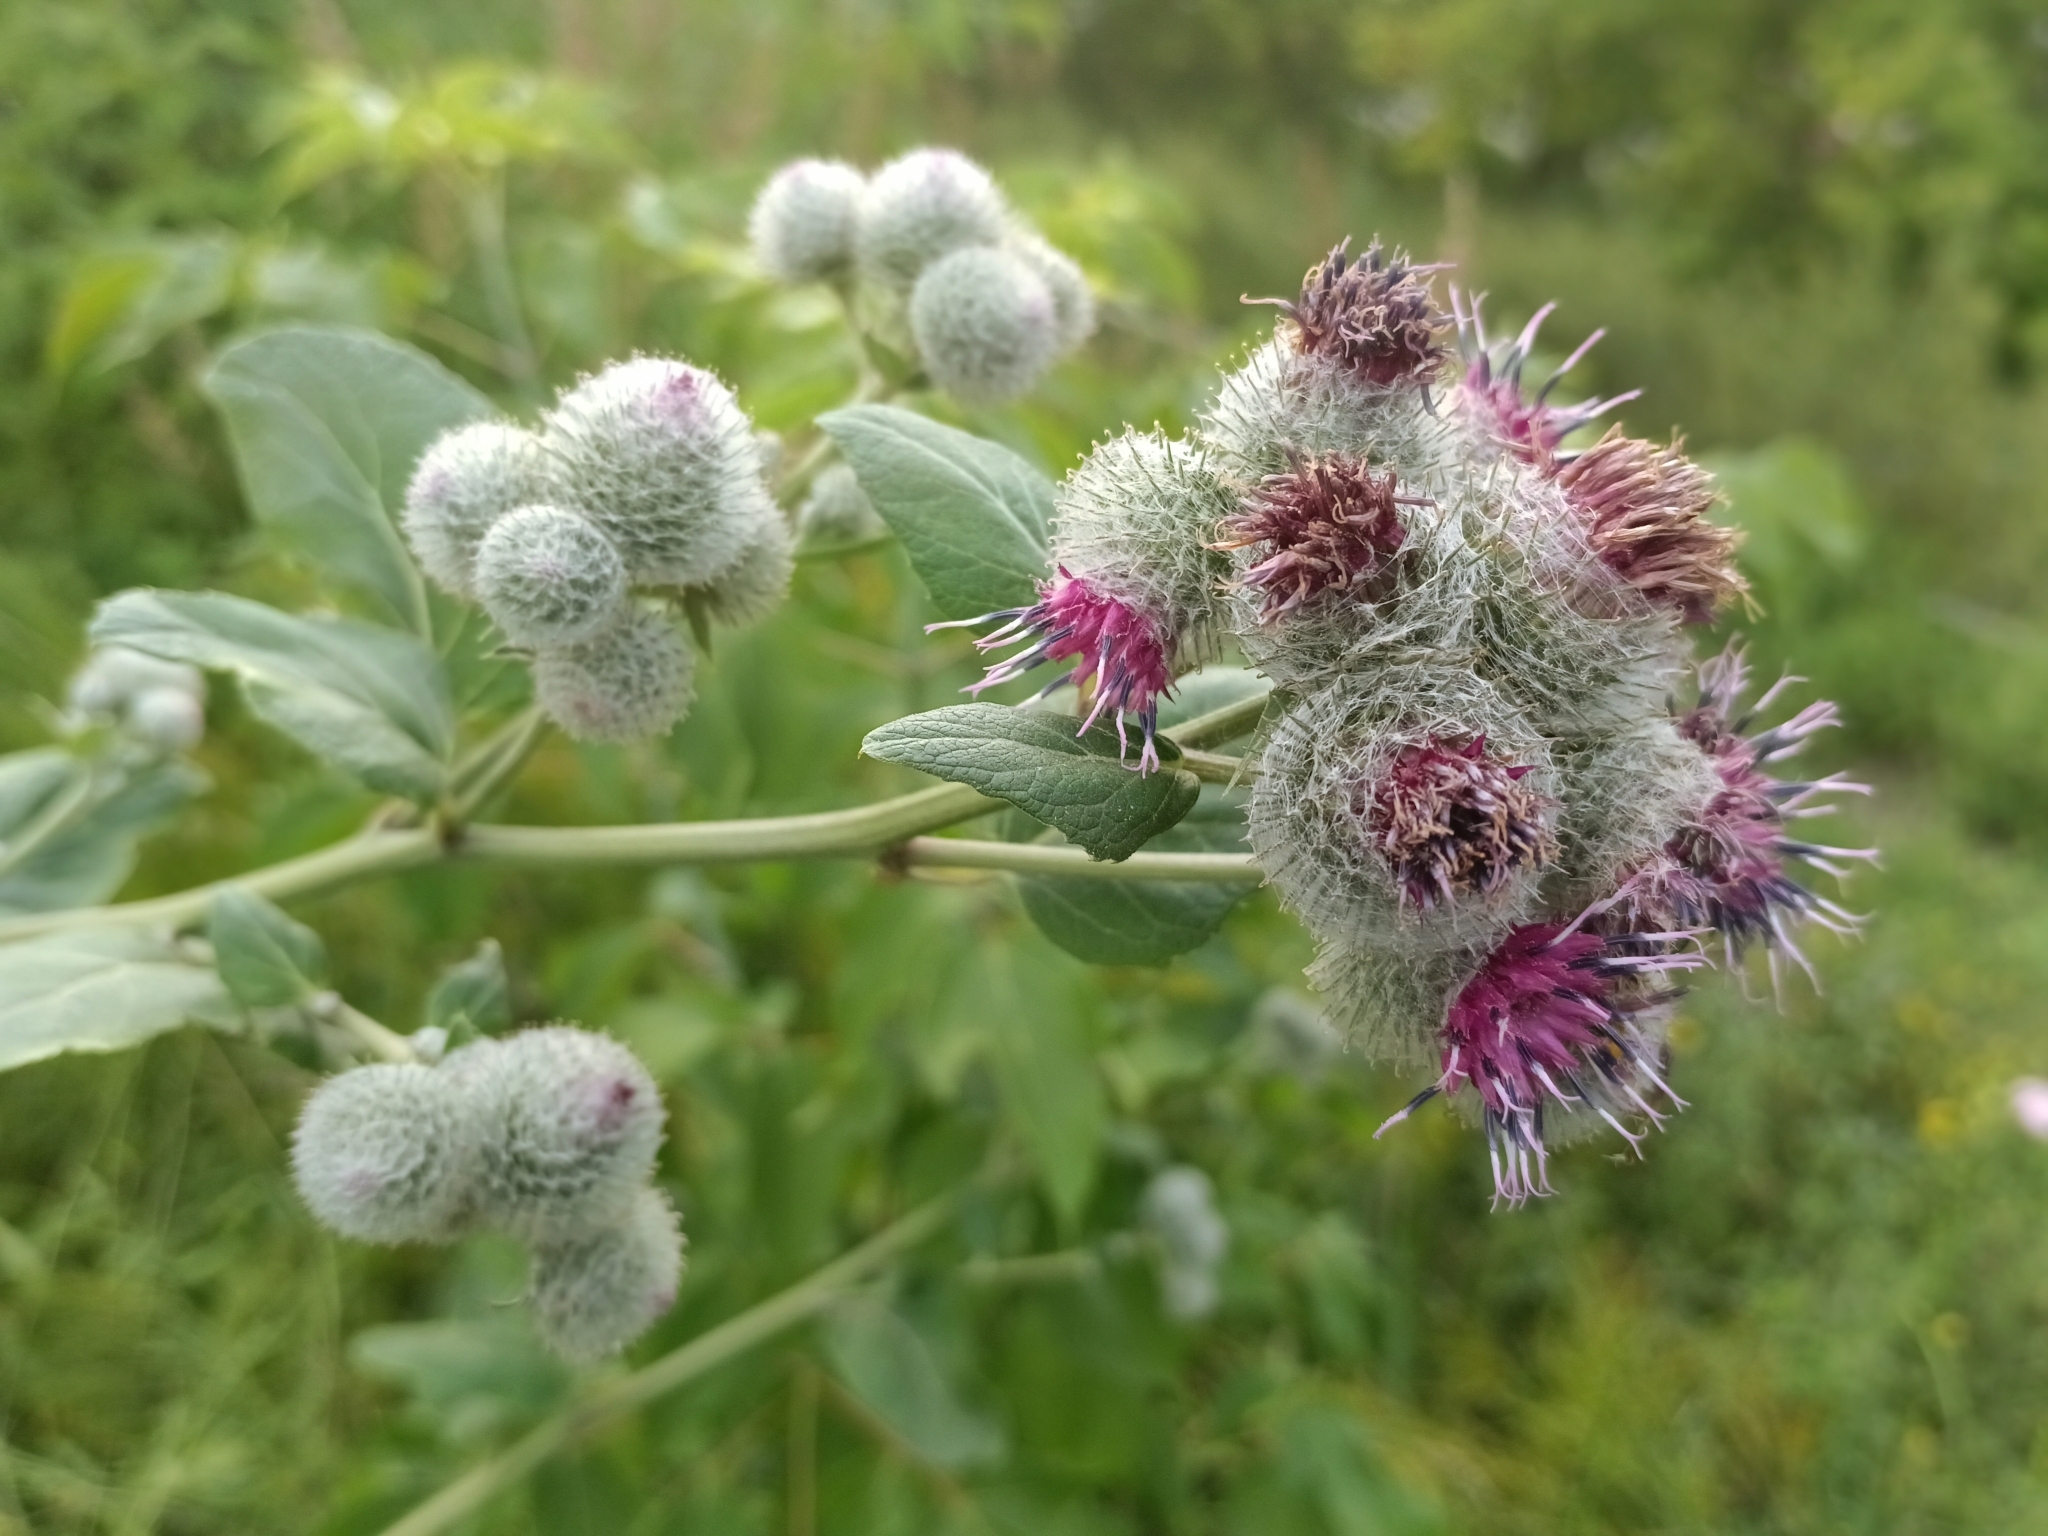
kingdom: Plantae
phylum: Tracheophyta
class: Magnoliopsida
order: Asterales
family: Asteraceae
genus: Arctium
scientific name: Arctium tomentosum
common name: Woolly burdock
